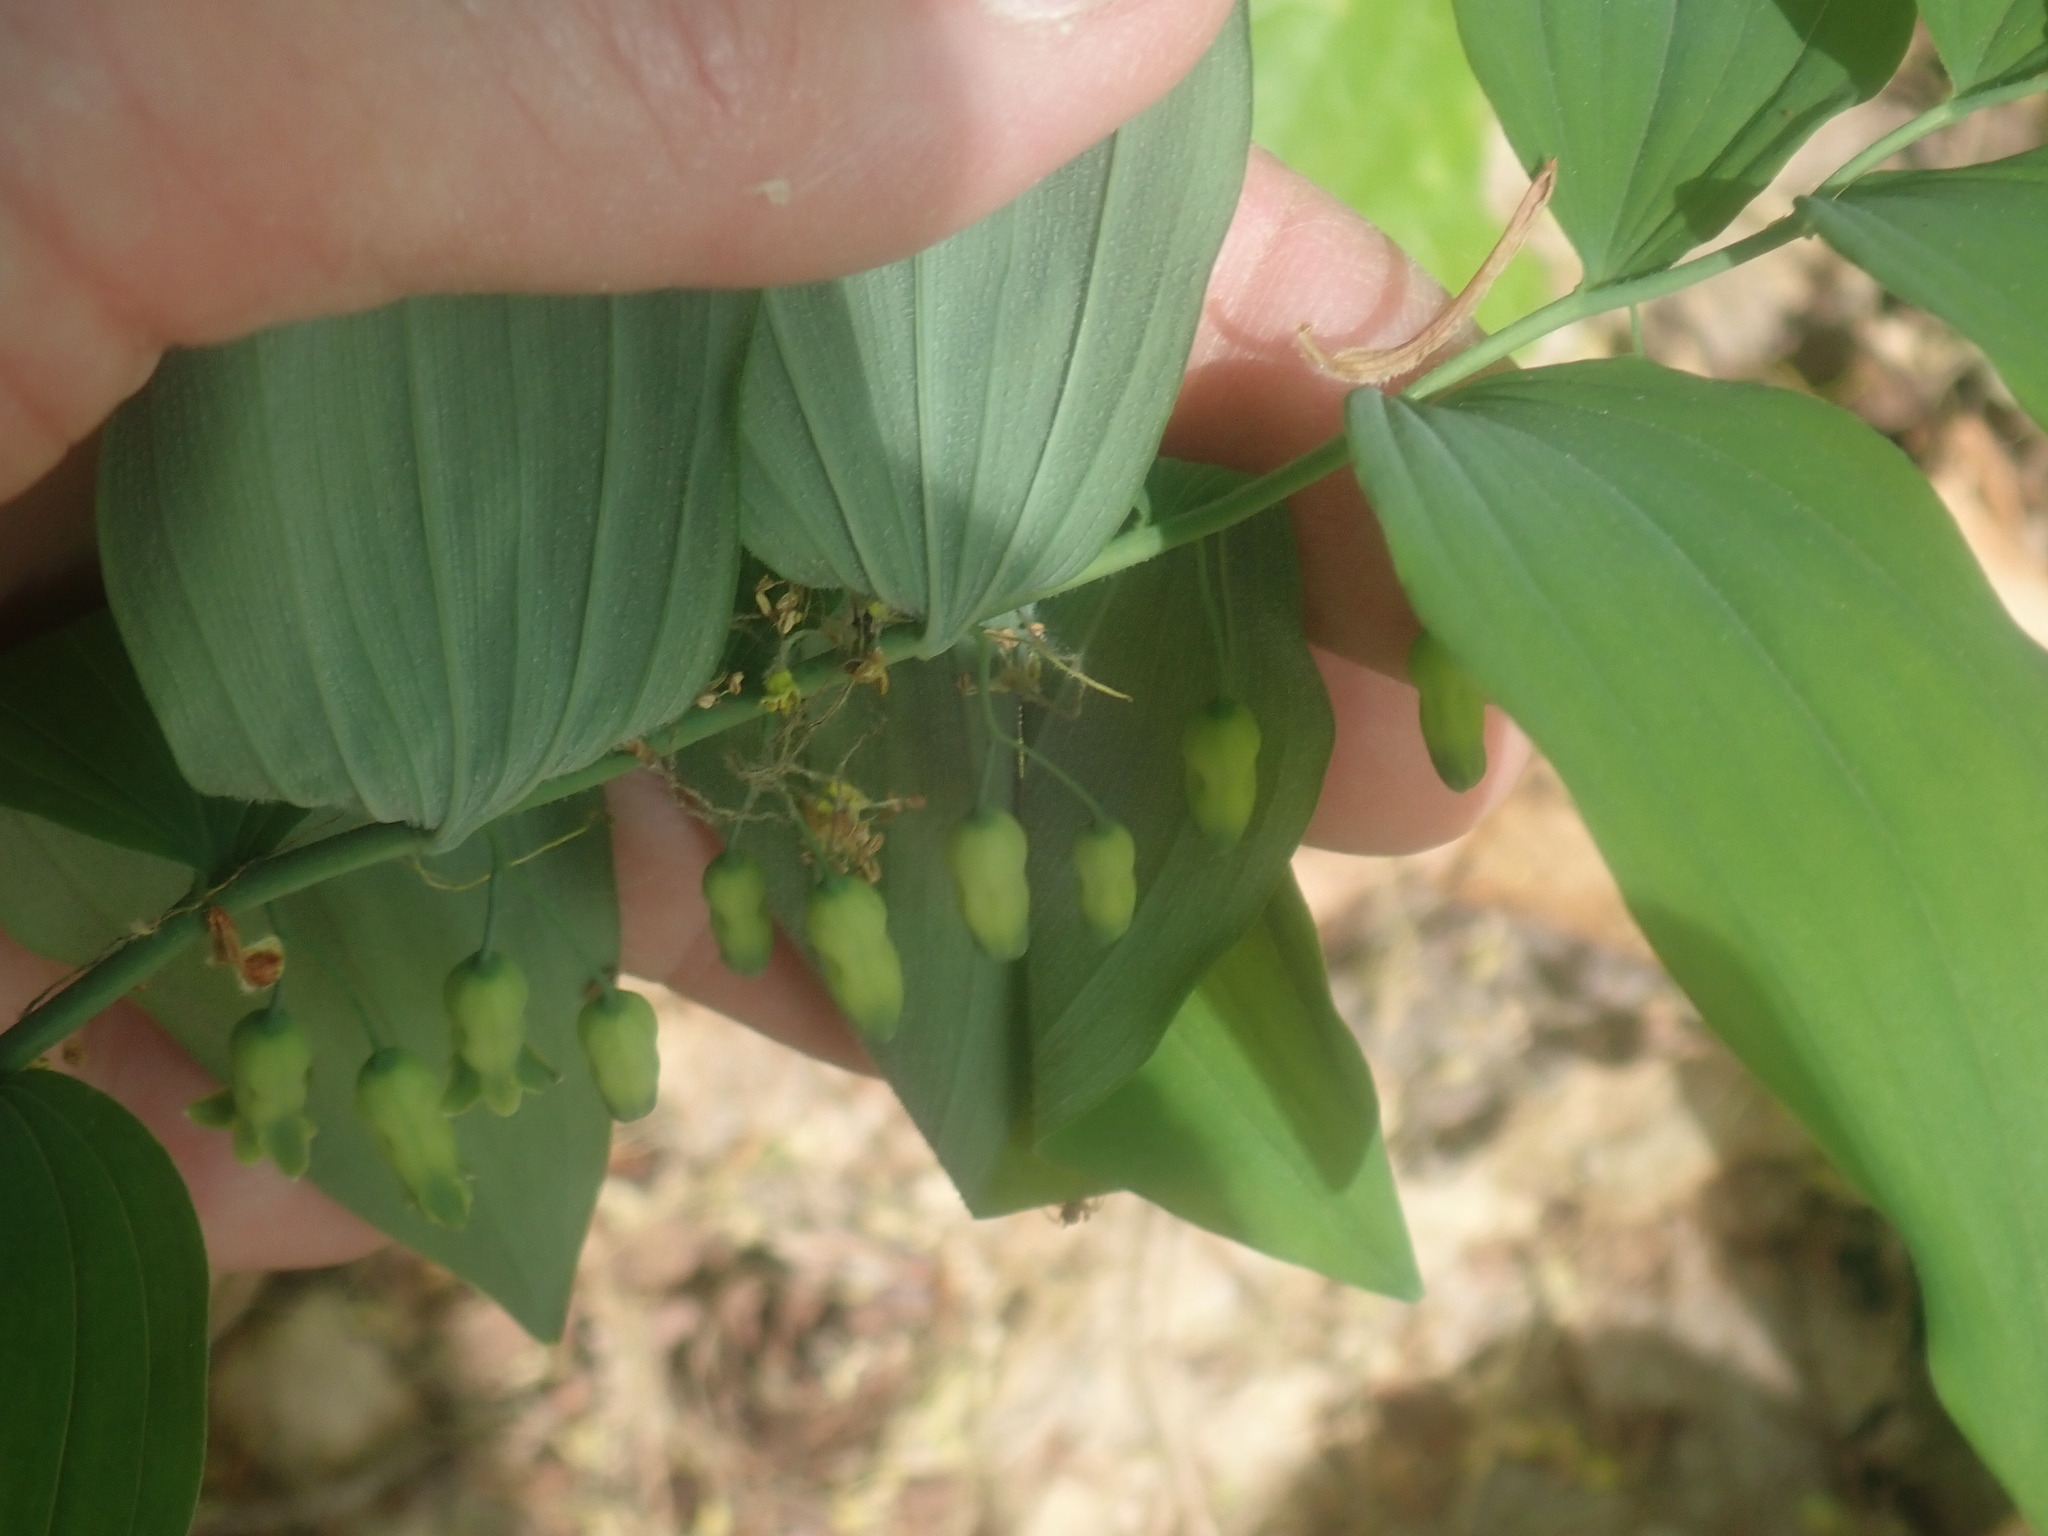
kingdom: Plantae
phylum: Tracheophyta
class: Liliopsida
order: Asparagales
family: Asparagaceae
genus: Polygonatum
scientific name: Polygonatum pubescens
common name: Downy solomon's seal
